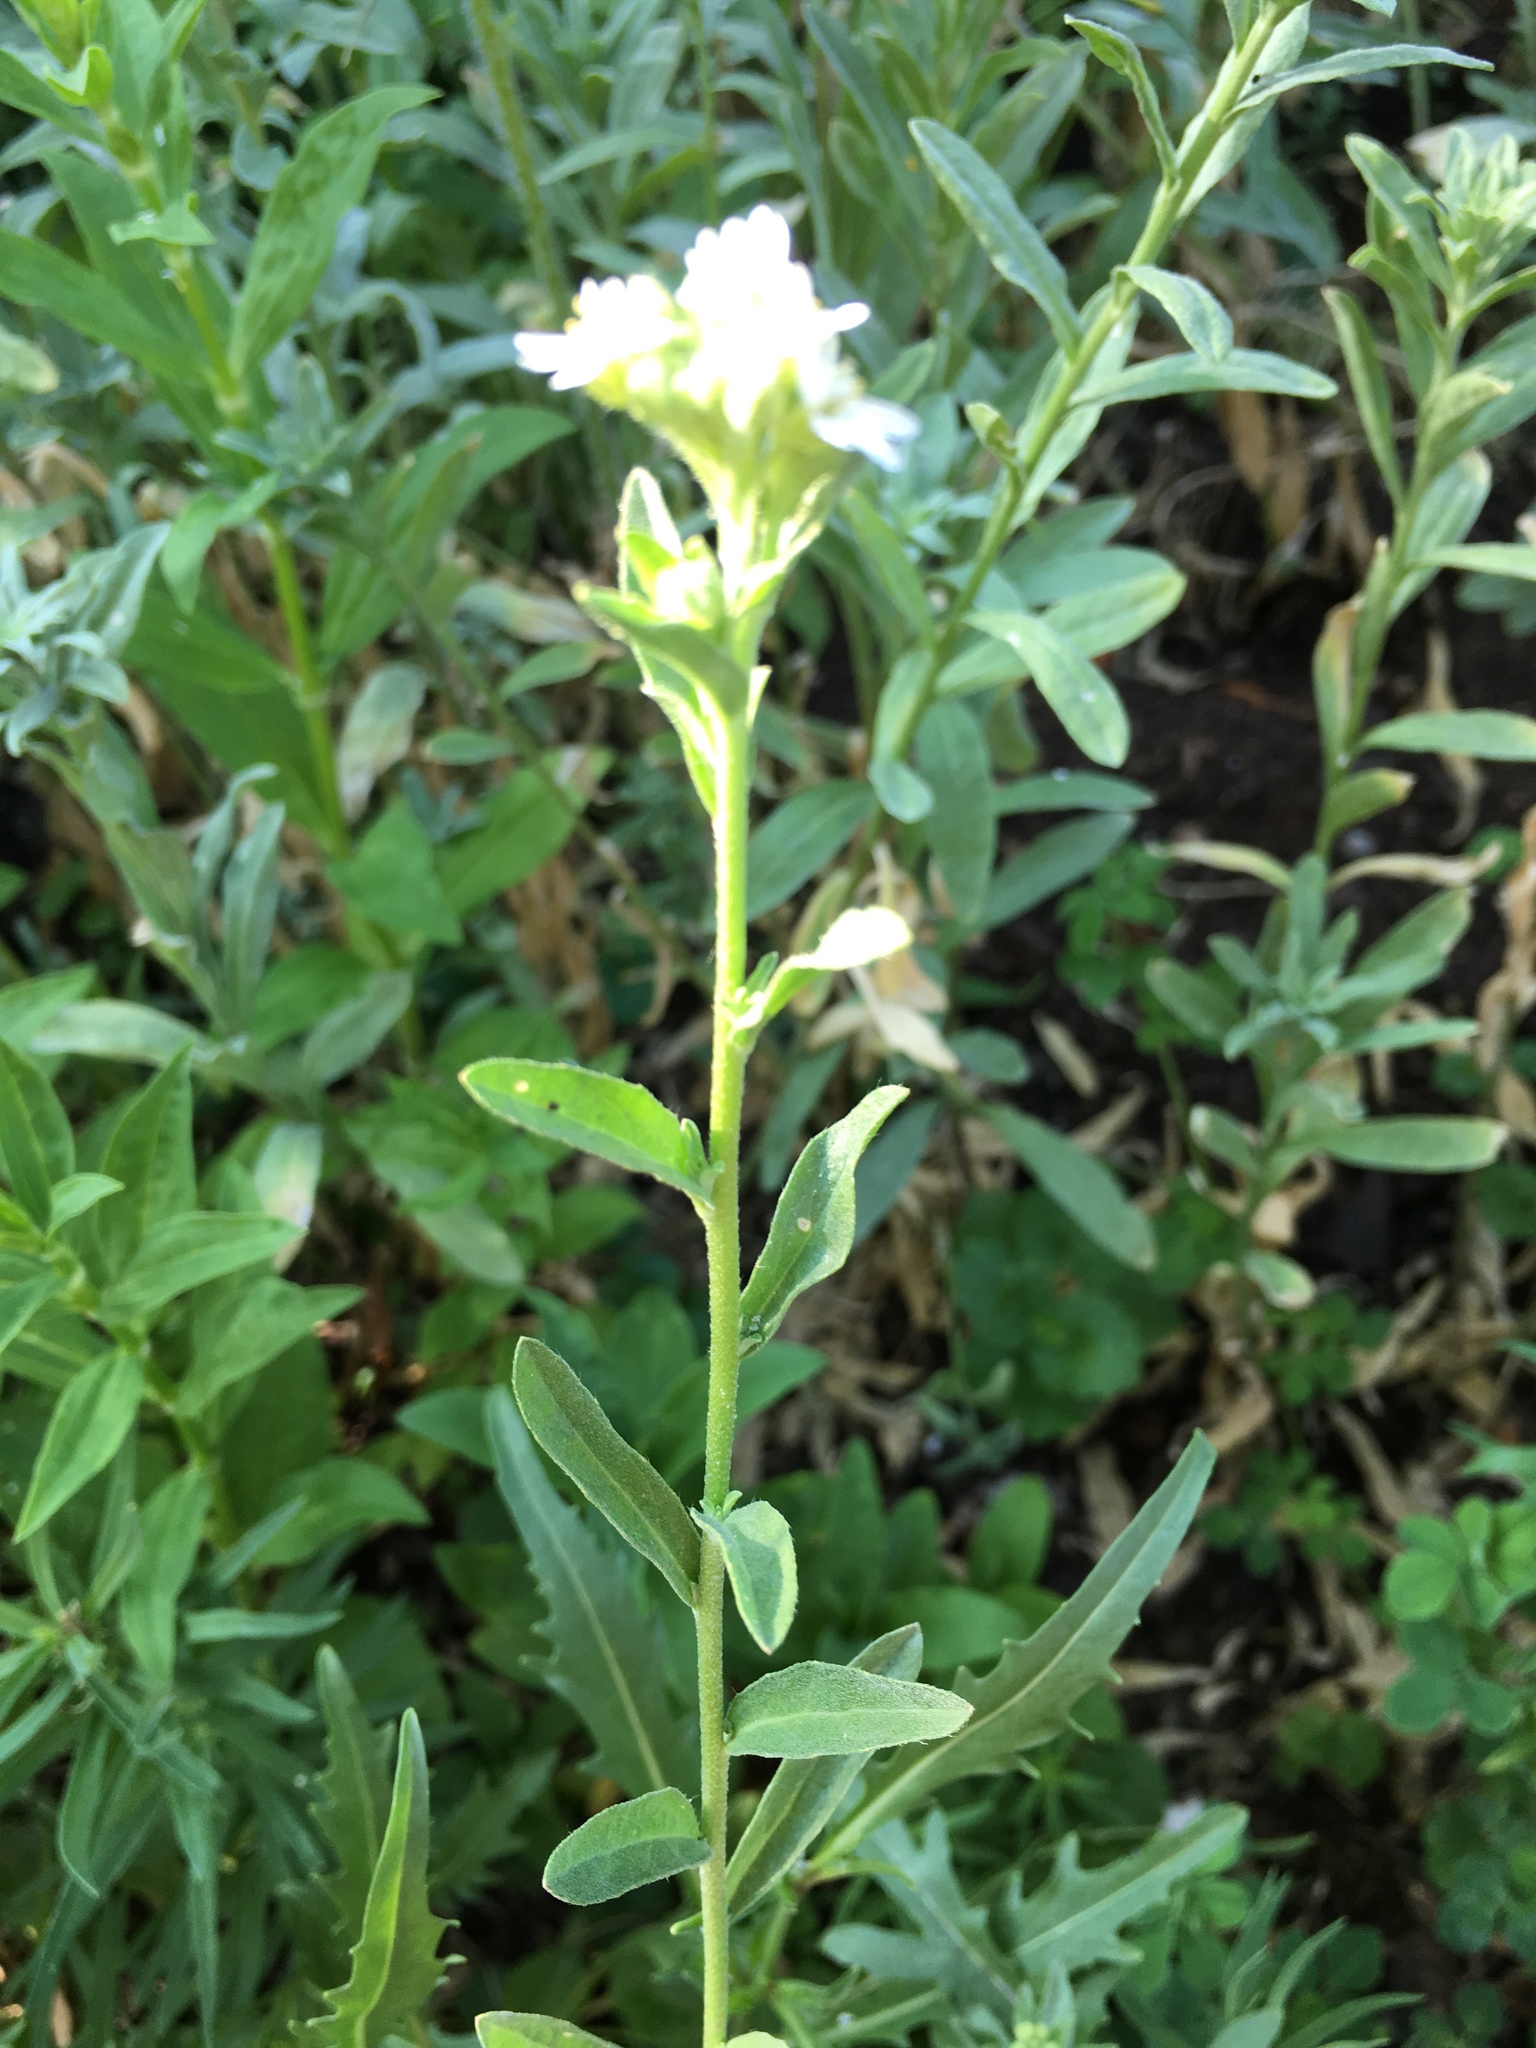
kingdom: Plantae
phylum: Tracheophyta
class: Magnoliopsida
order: Brassicales
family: Brassicaceae
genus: Berteroa
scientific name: Berteroa incana
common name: Hoary alison
